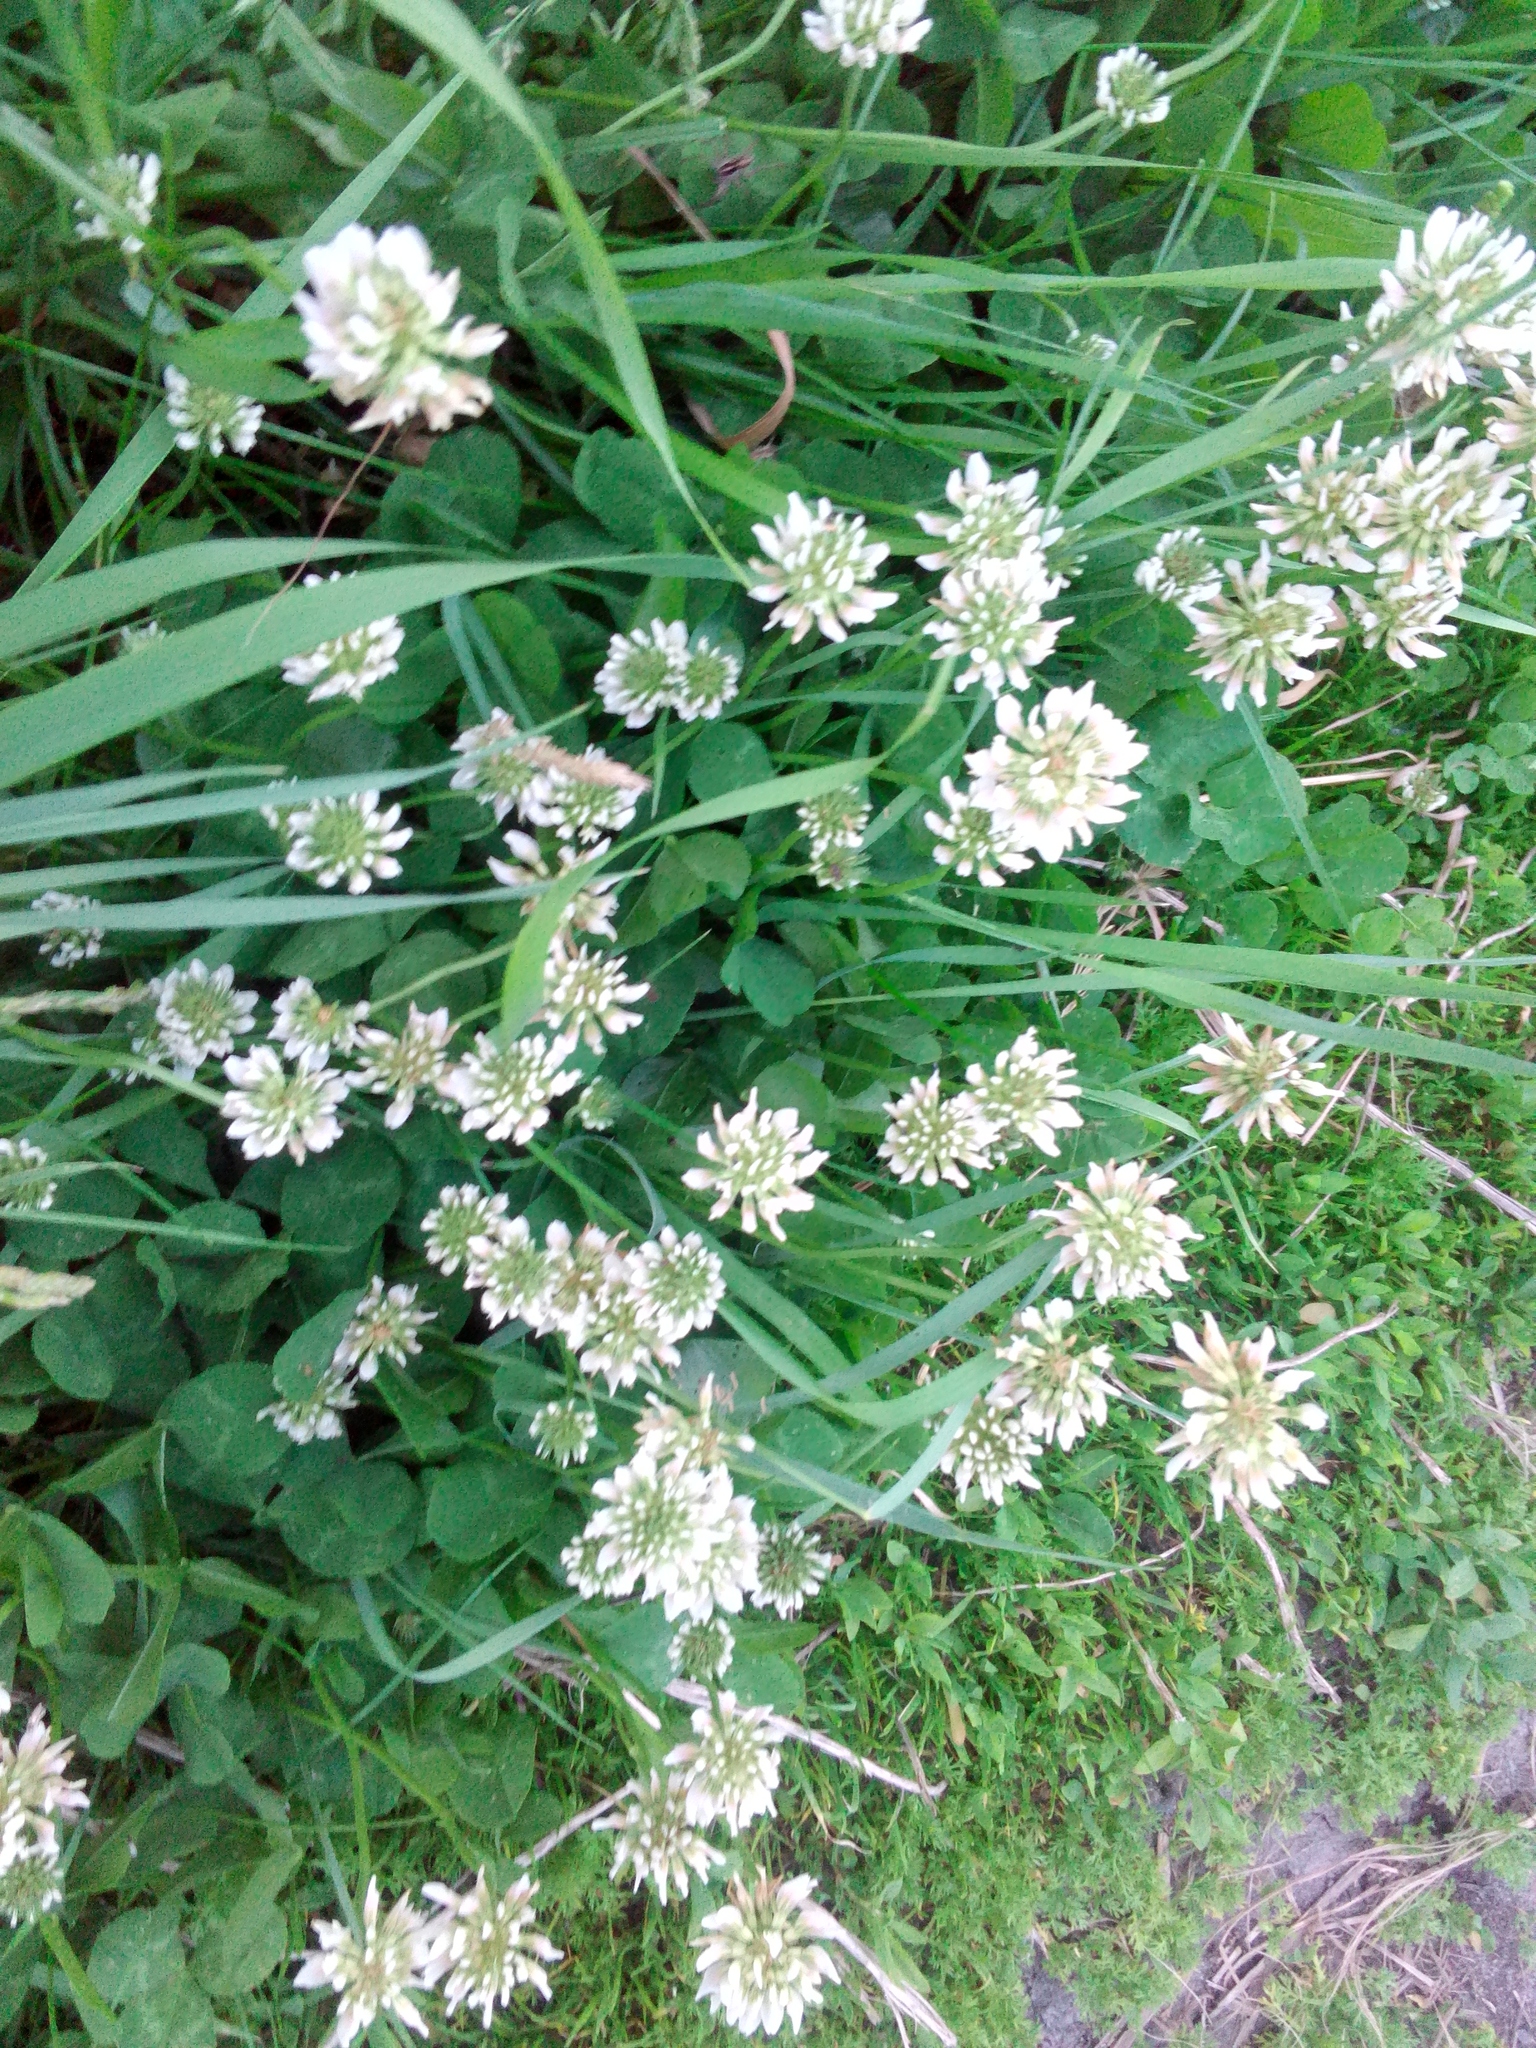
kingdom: Plantae
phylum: Tracheophyta
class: Magnoliopsida
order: Fabales
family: Fabaceae
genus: Trifolium
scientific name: Trifolium repens
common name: White clover
